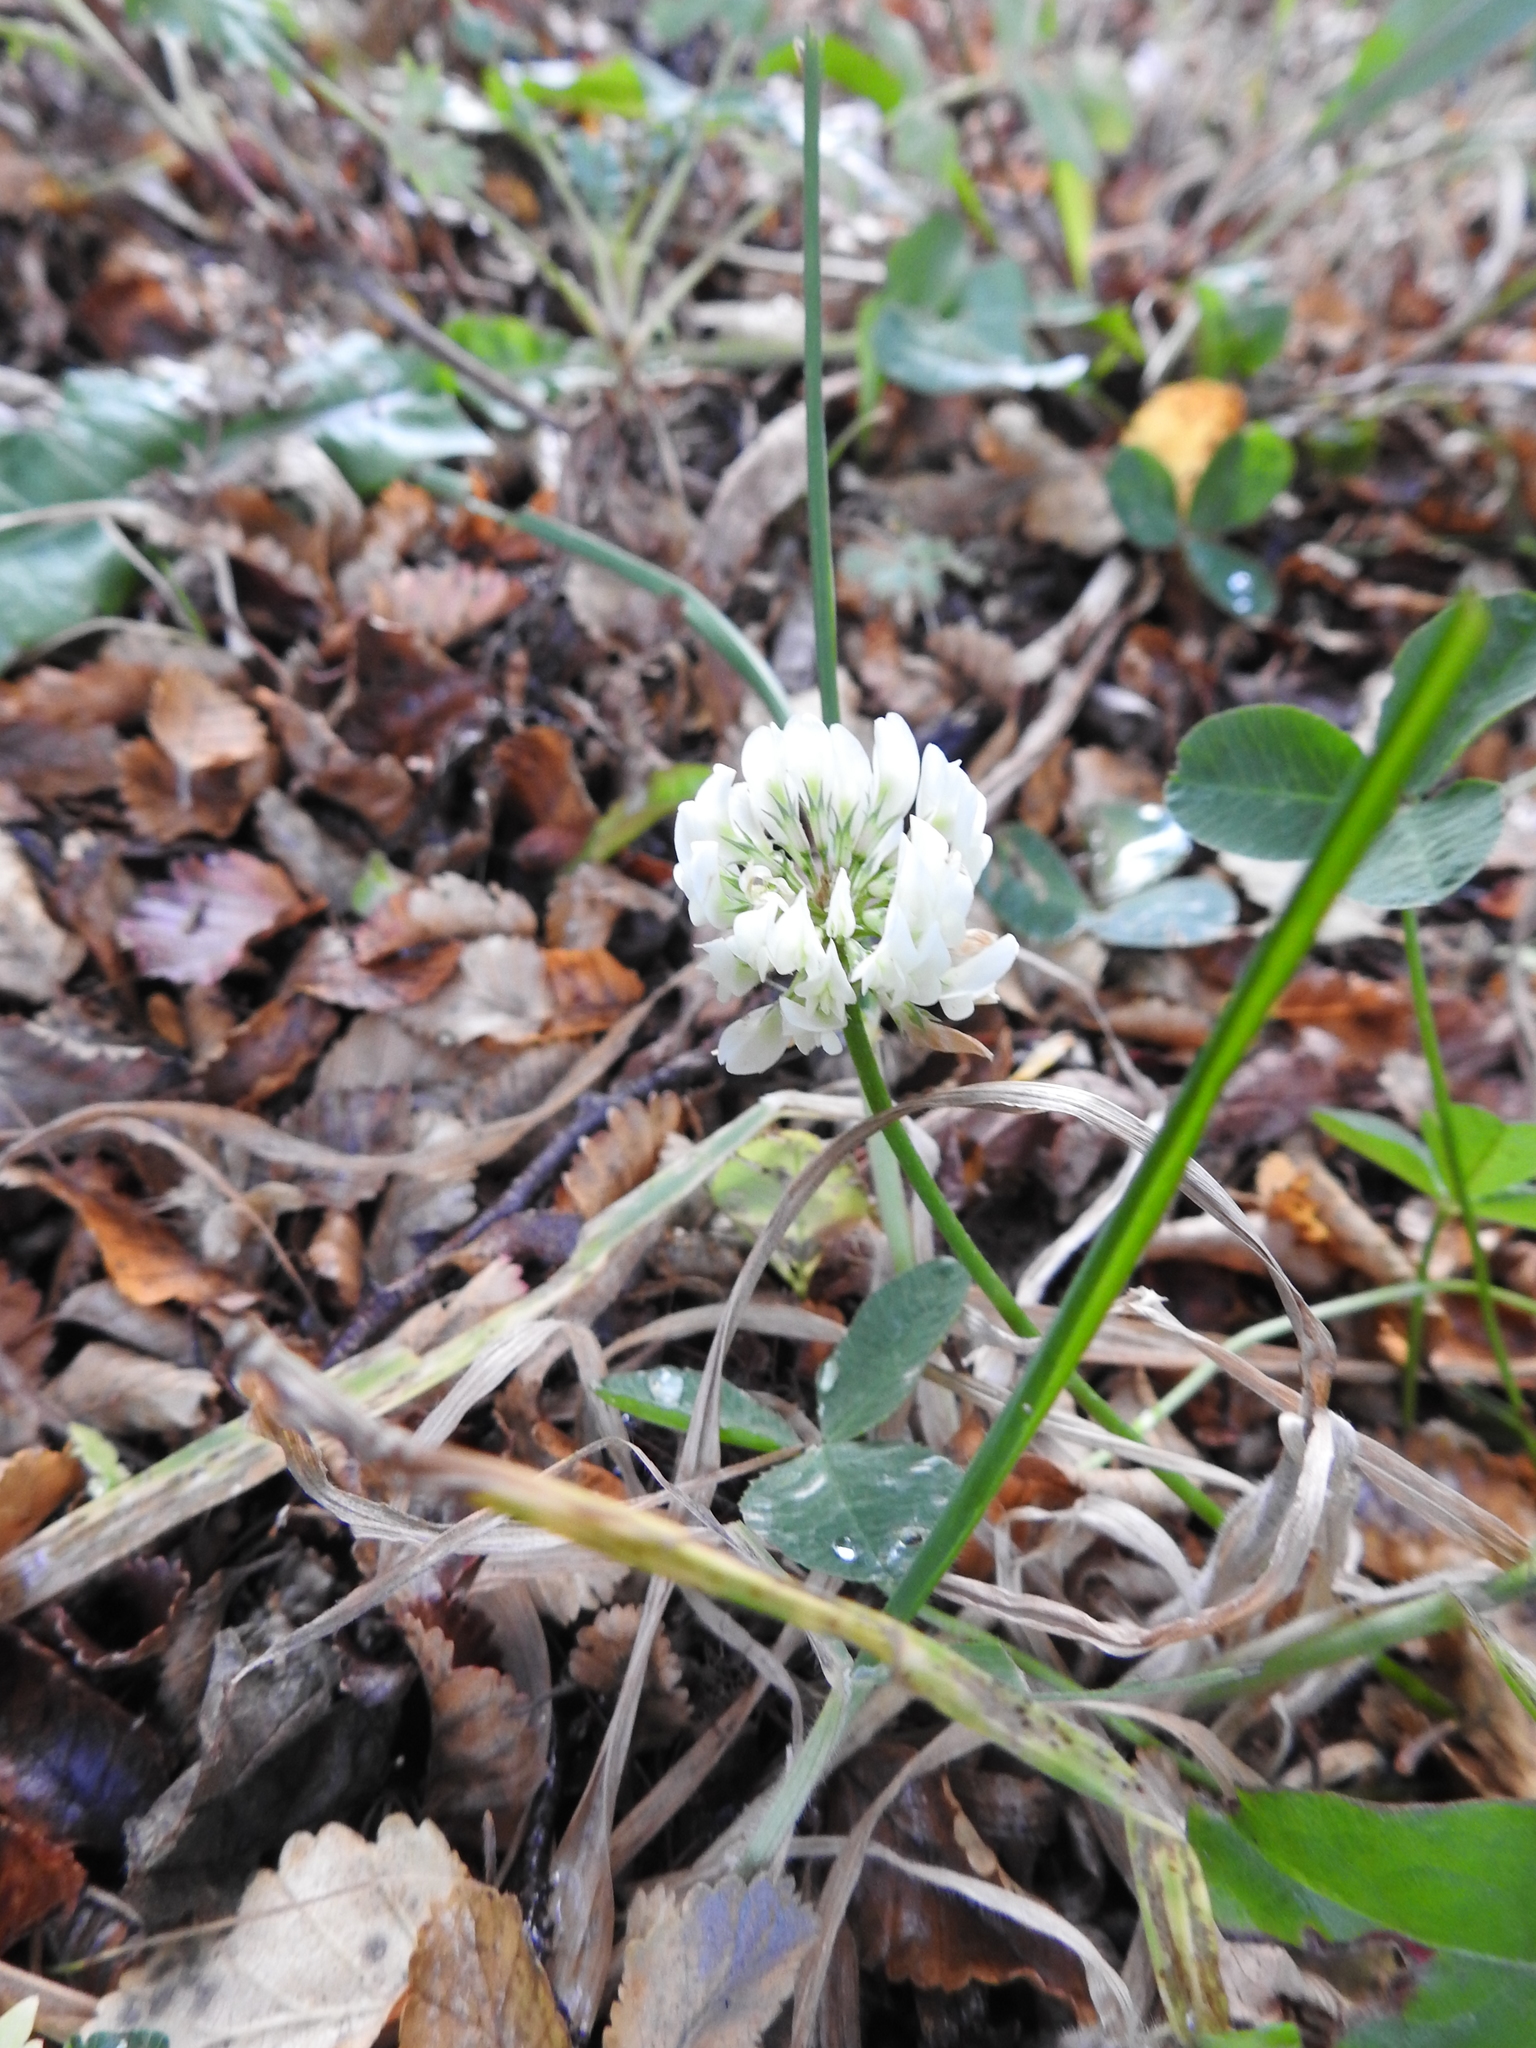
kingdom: Plantae
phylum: Tracheophyta
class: Magnoliopsida
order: Fabales
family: Fabaceae
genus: Trifolium
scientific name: Trifolium repens
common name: White clover
